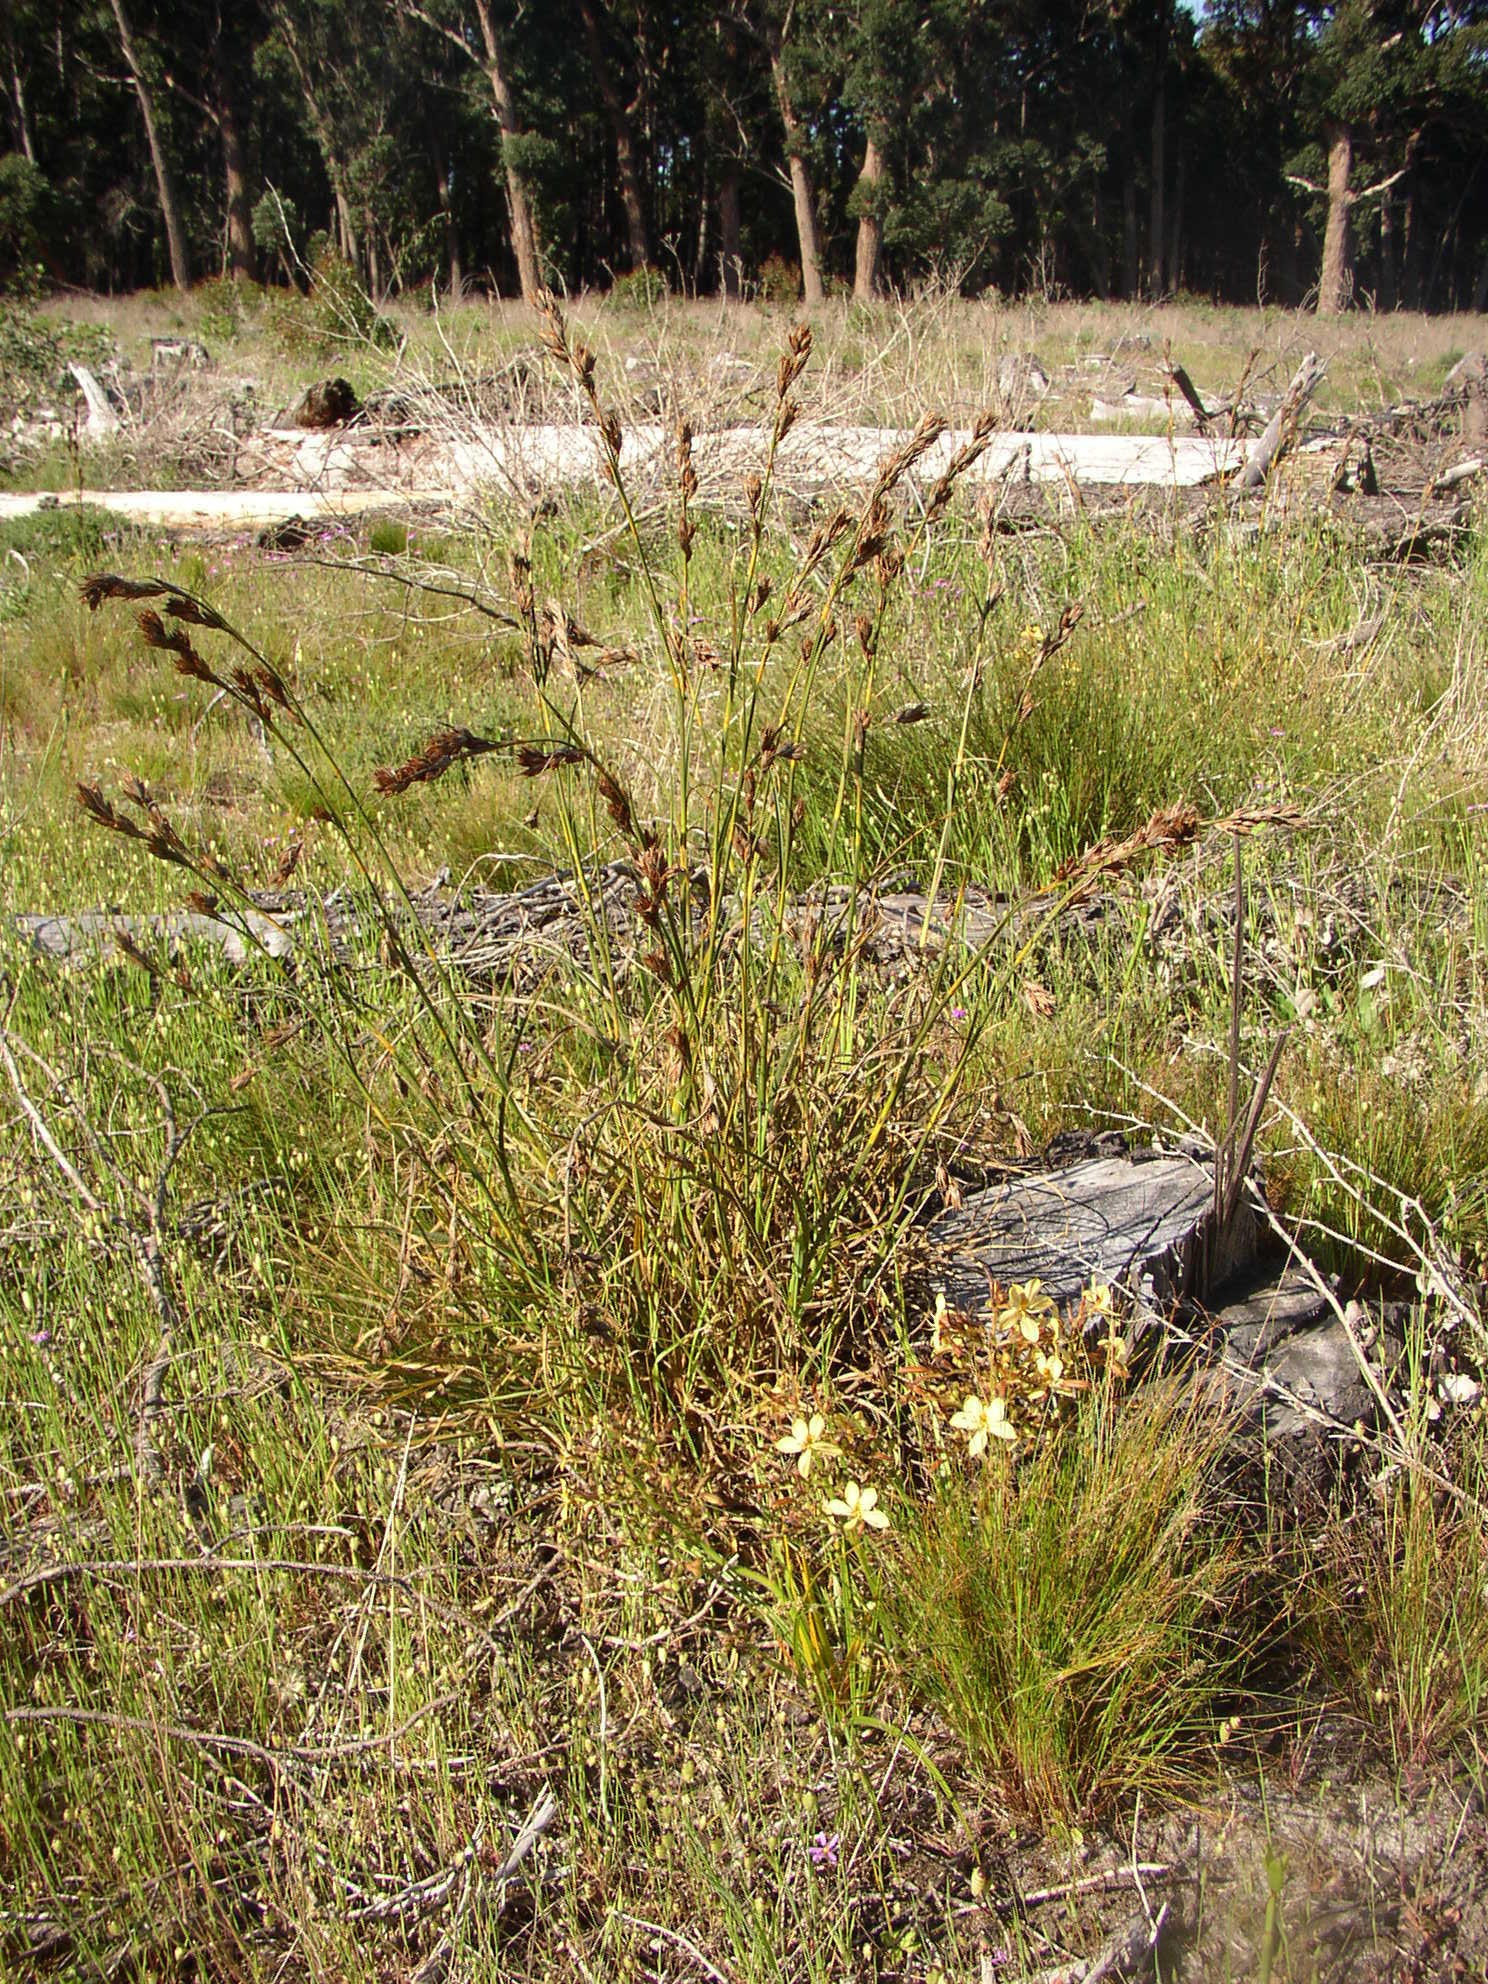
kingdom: Plantae
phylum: Tracheophyta
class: Liliopsida
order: Poales
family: Cyperaceae
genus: Tetraria
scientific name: Tetraria eximia
